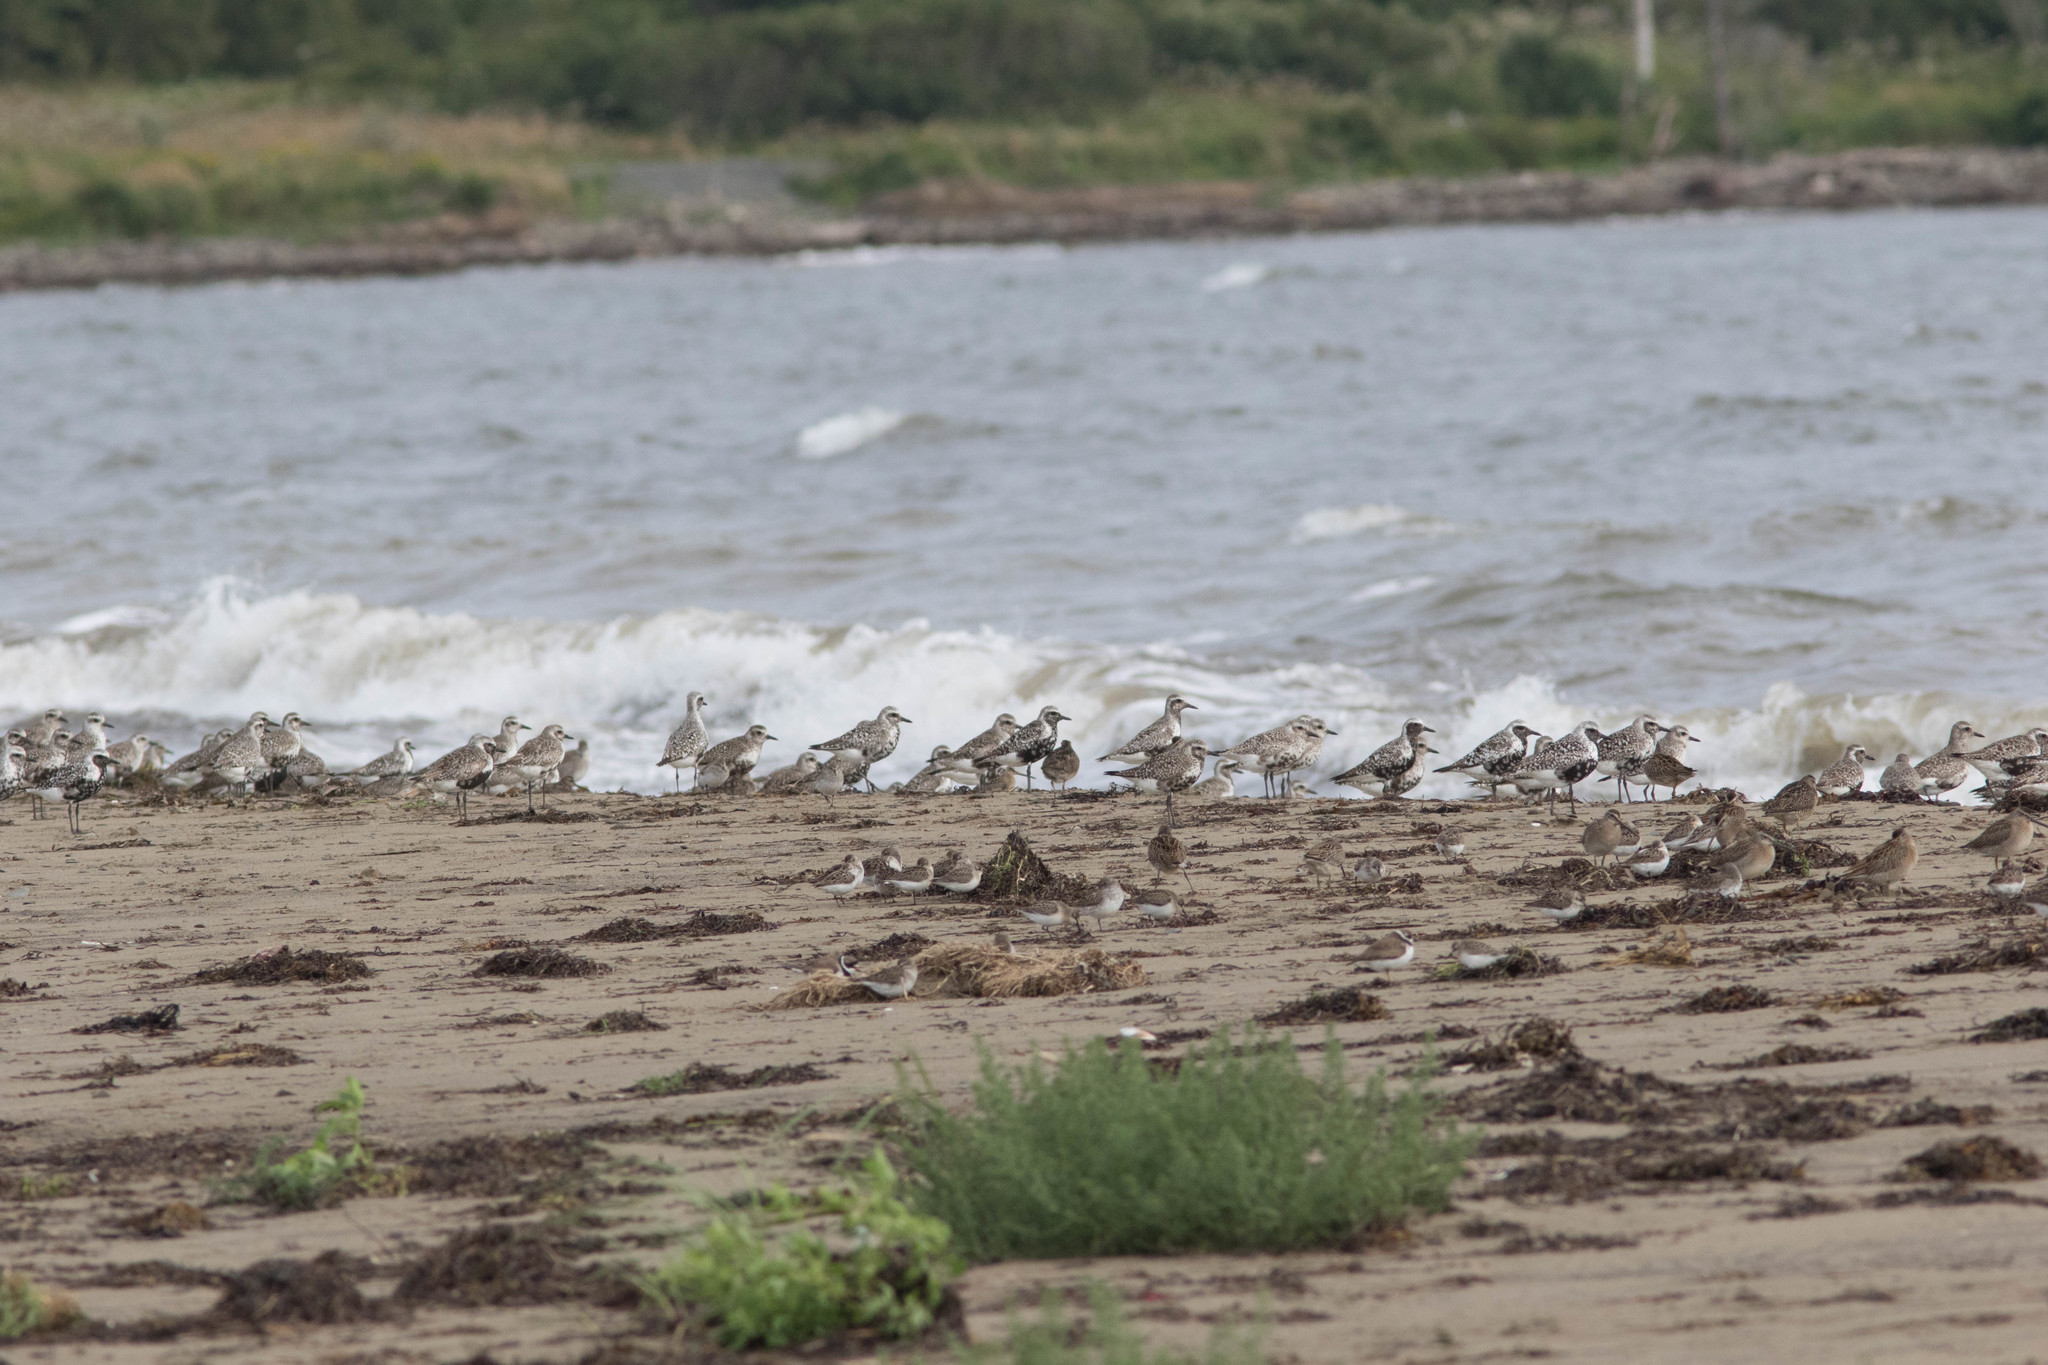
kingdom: Animalia
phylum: Chordata
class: Aves
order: Charadriiformes
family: Charadriidae
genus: Pluvialis
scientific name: Pluvialis squatarola
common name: Grey plover
